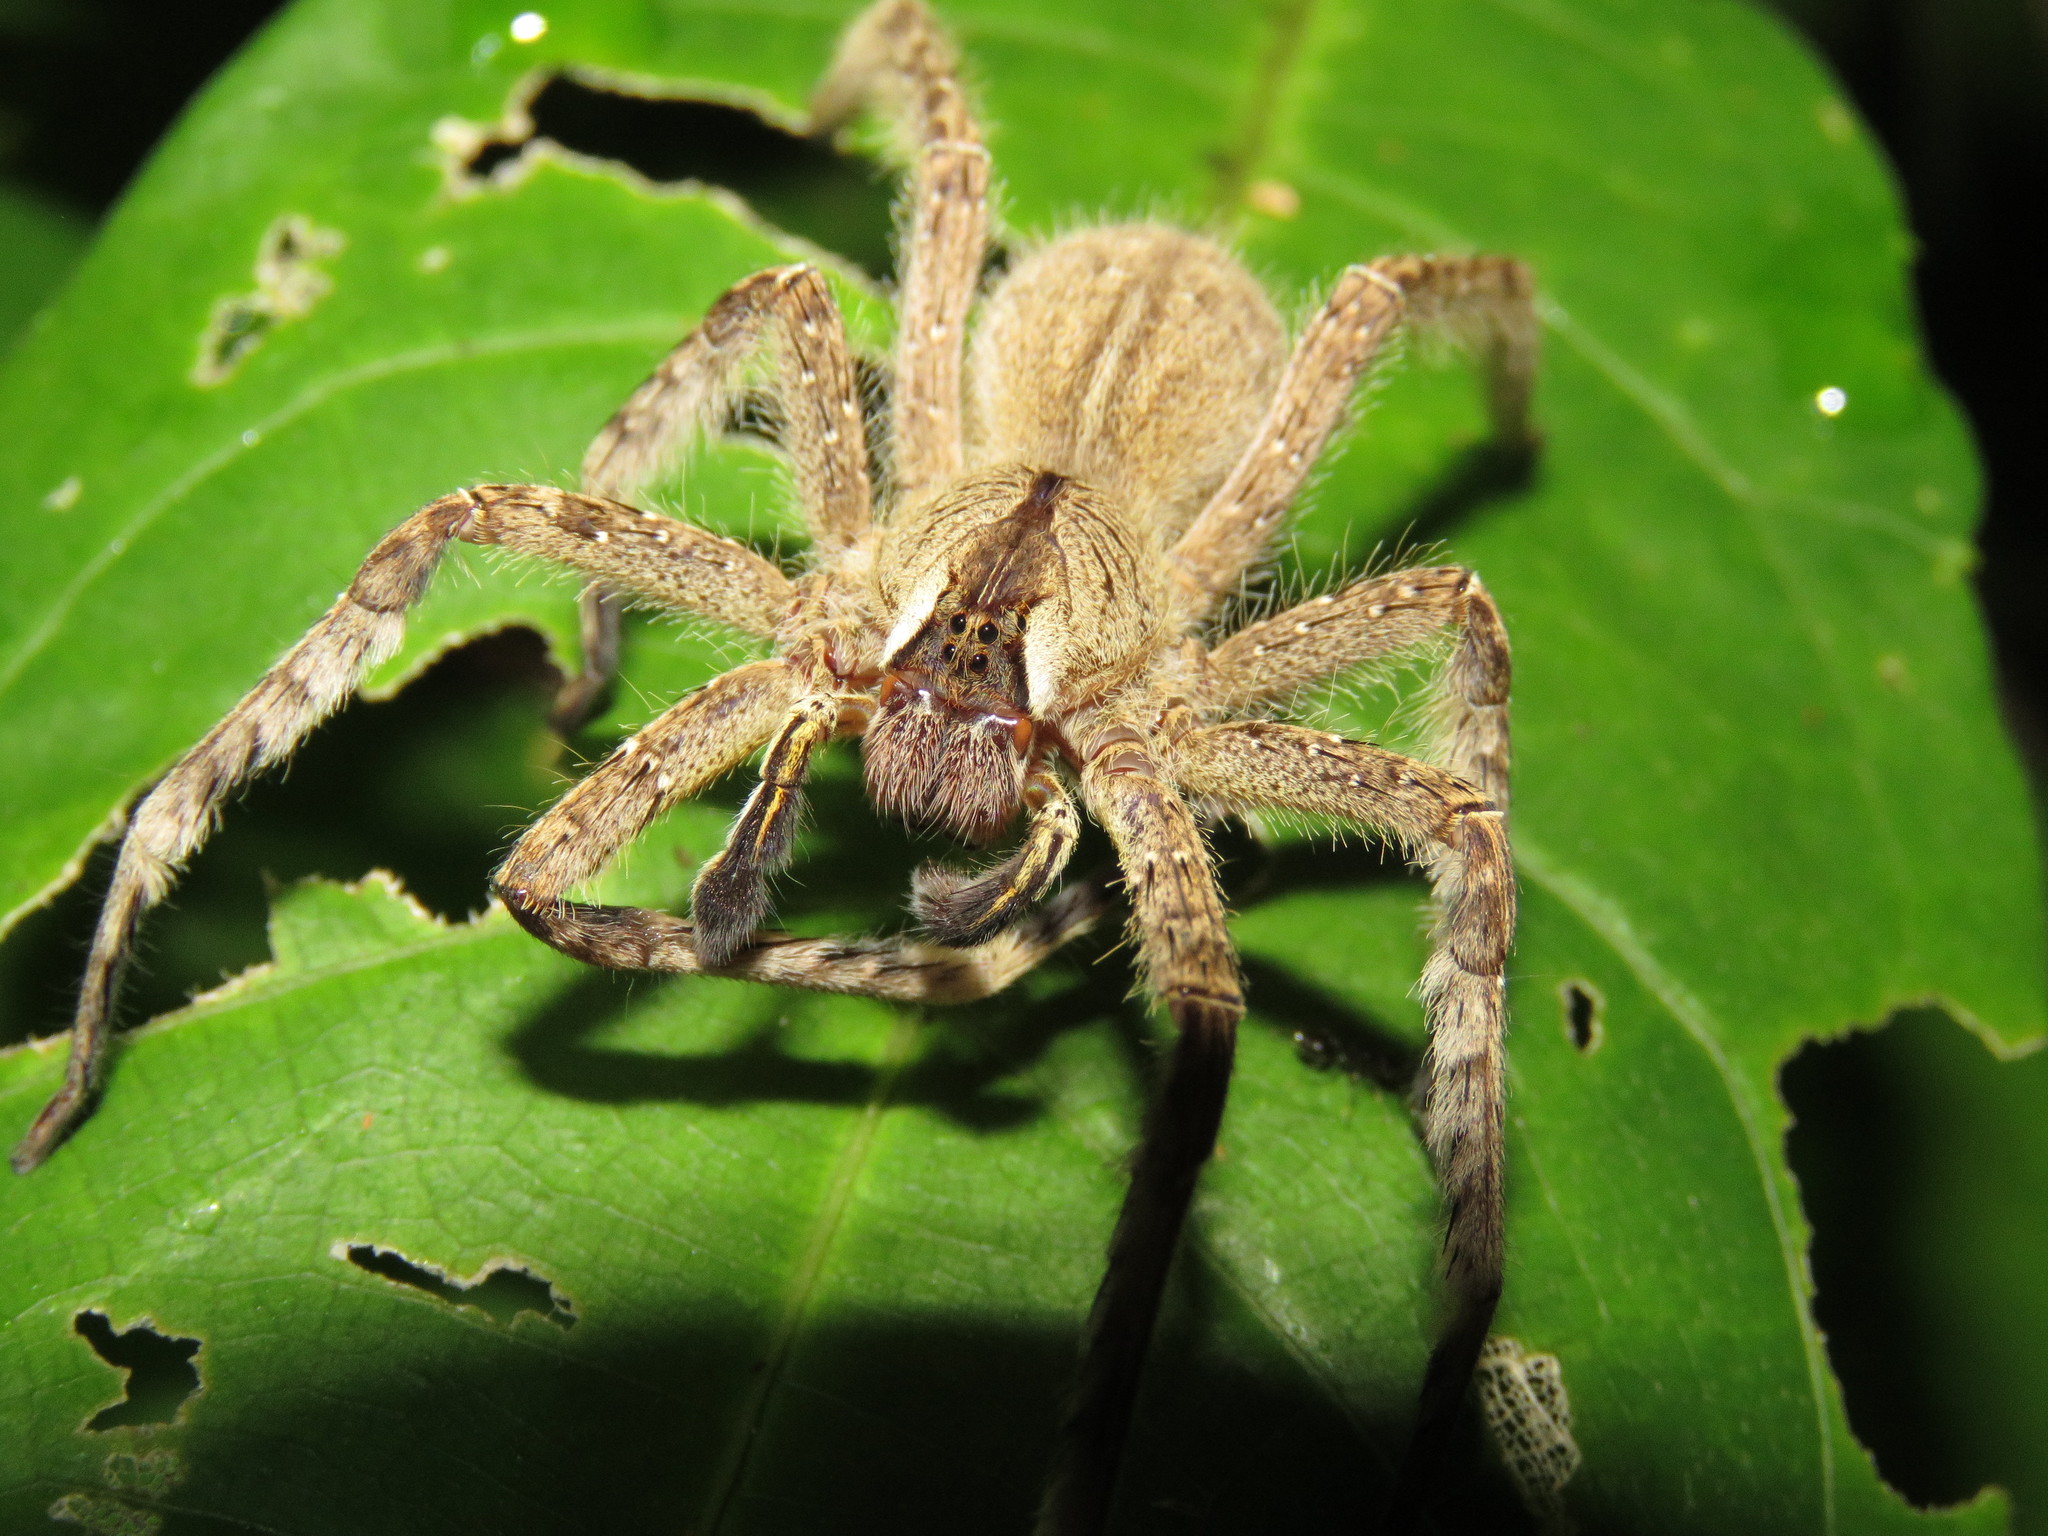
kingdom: Animalia
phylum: Arthropoda
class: Arachnida
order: Araneae
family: Ctenidae
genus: Phoneutria
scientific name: Phoneutria boliviensis
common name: Wandering spiders
